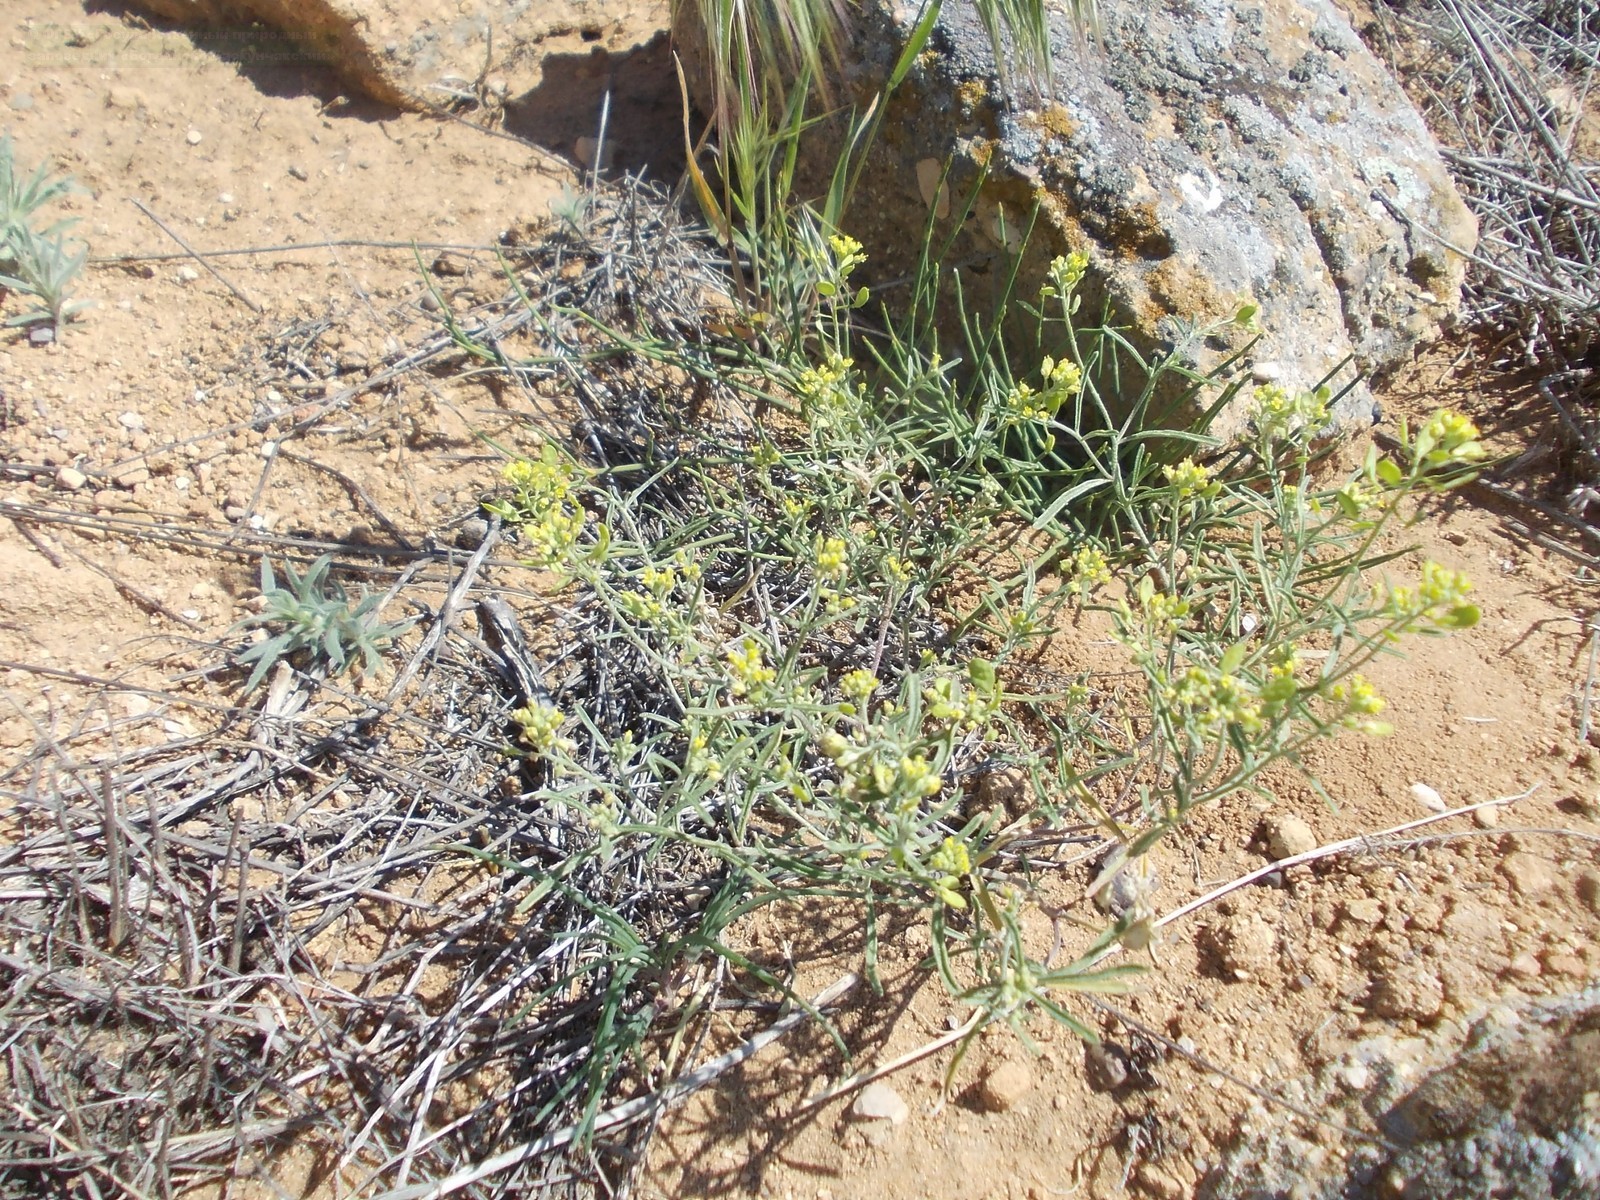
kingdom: Plantae
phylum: Tracheophyta
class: Magnoliopsida
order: Brassicales
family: Brassicaceae
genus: Meniocus
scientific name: Meniocus linifolius
